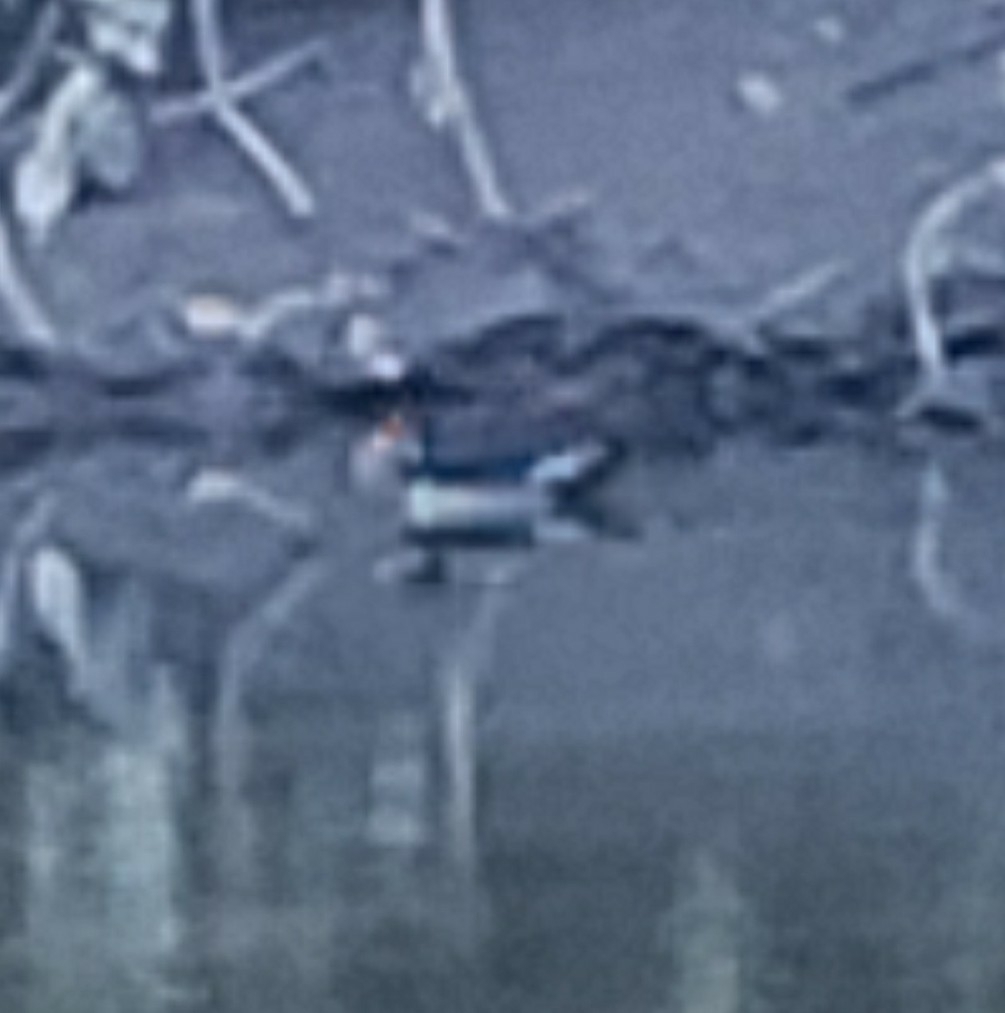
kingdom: Animalia
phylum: Chordata
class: Aves
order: Anseriformes
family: Anatidae
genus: Aix
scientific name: Aix sponsa
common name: Wood duck
